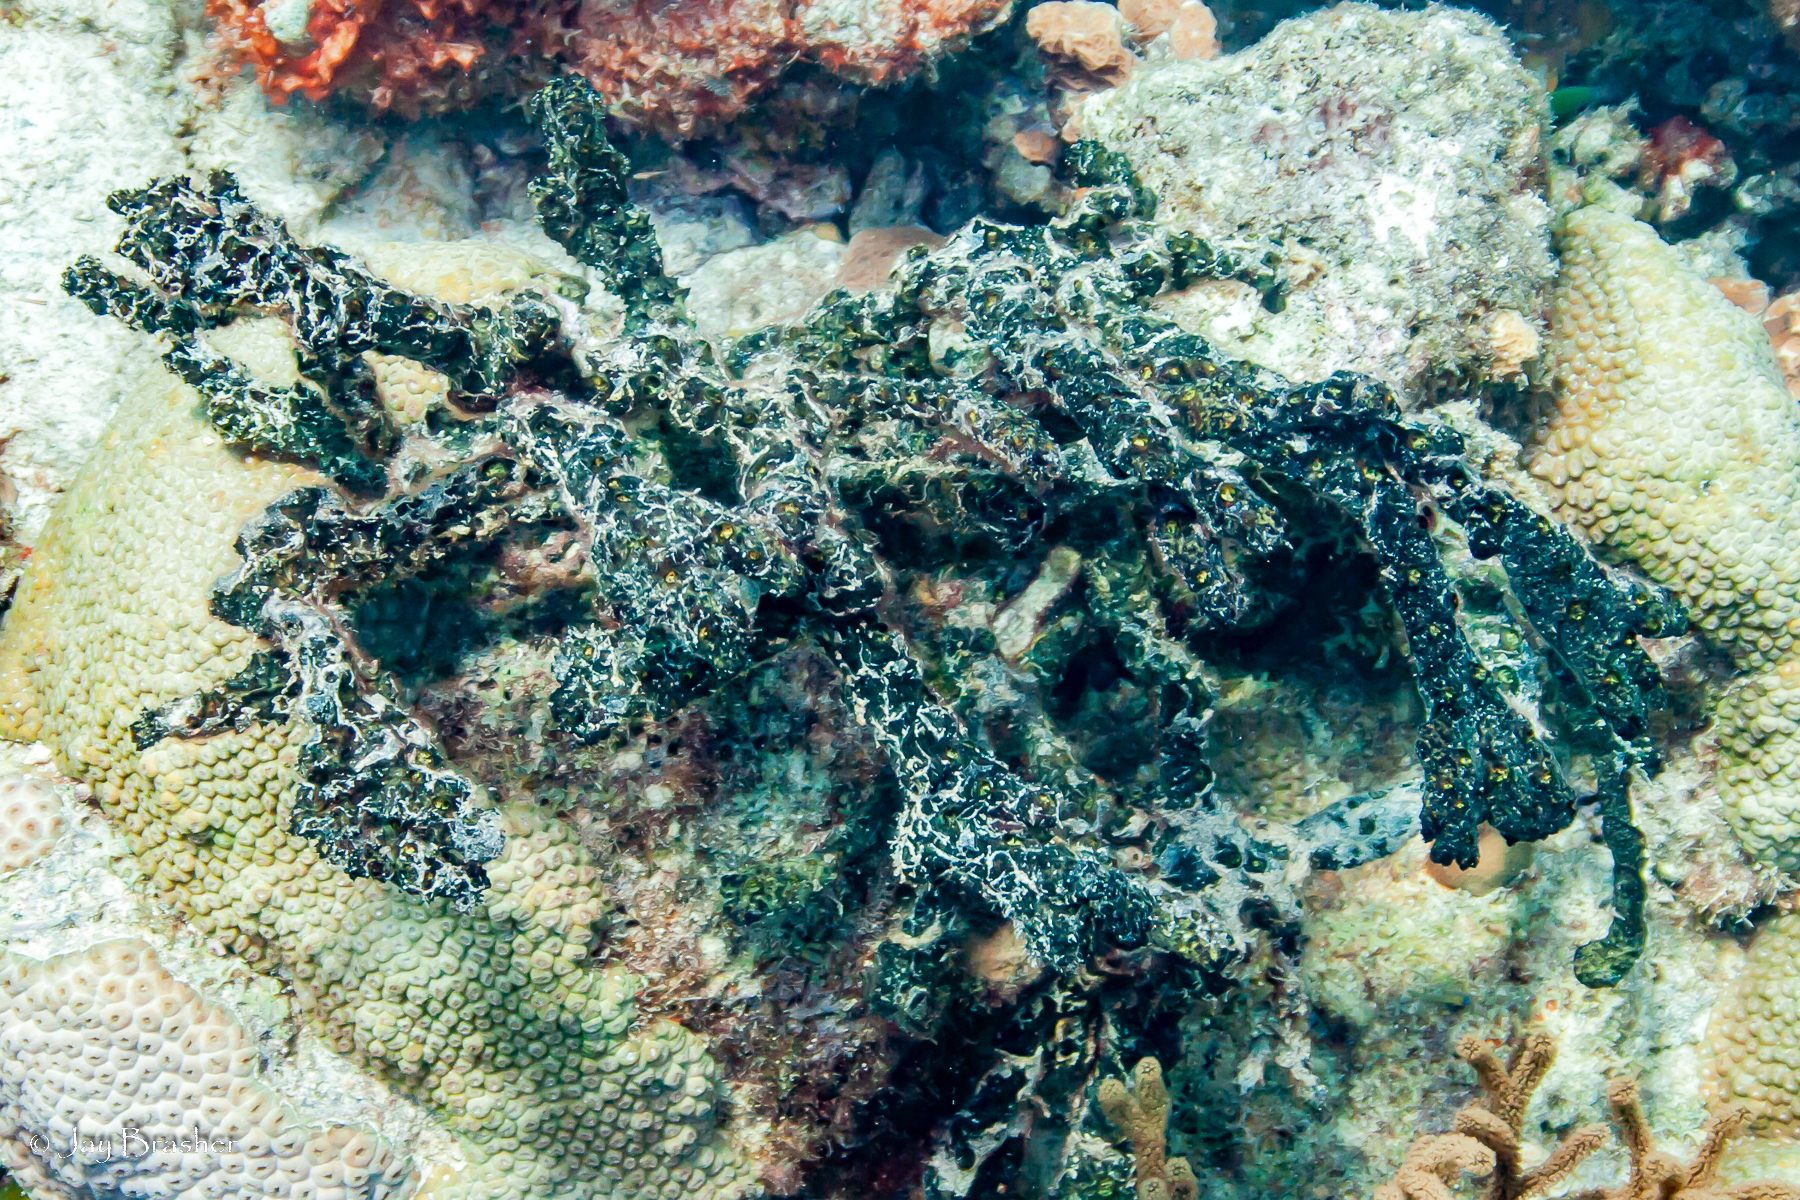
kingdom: Animalia
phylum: Porifera
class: Demospongiae
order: Poecilosclerida
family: Iotrochotidae
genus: Iotrochota
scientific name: Iotrochota birotulata
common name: Purple bleeding sponge
